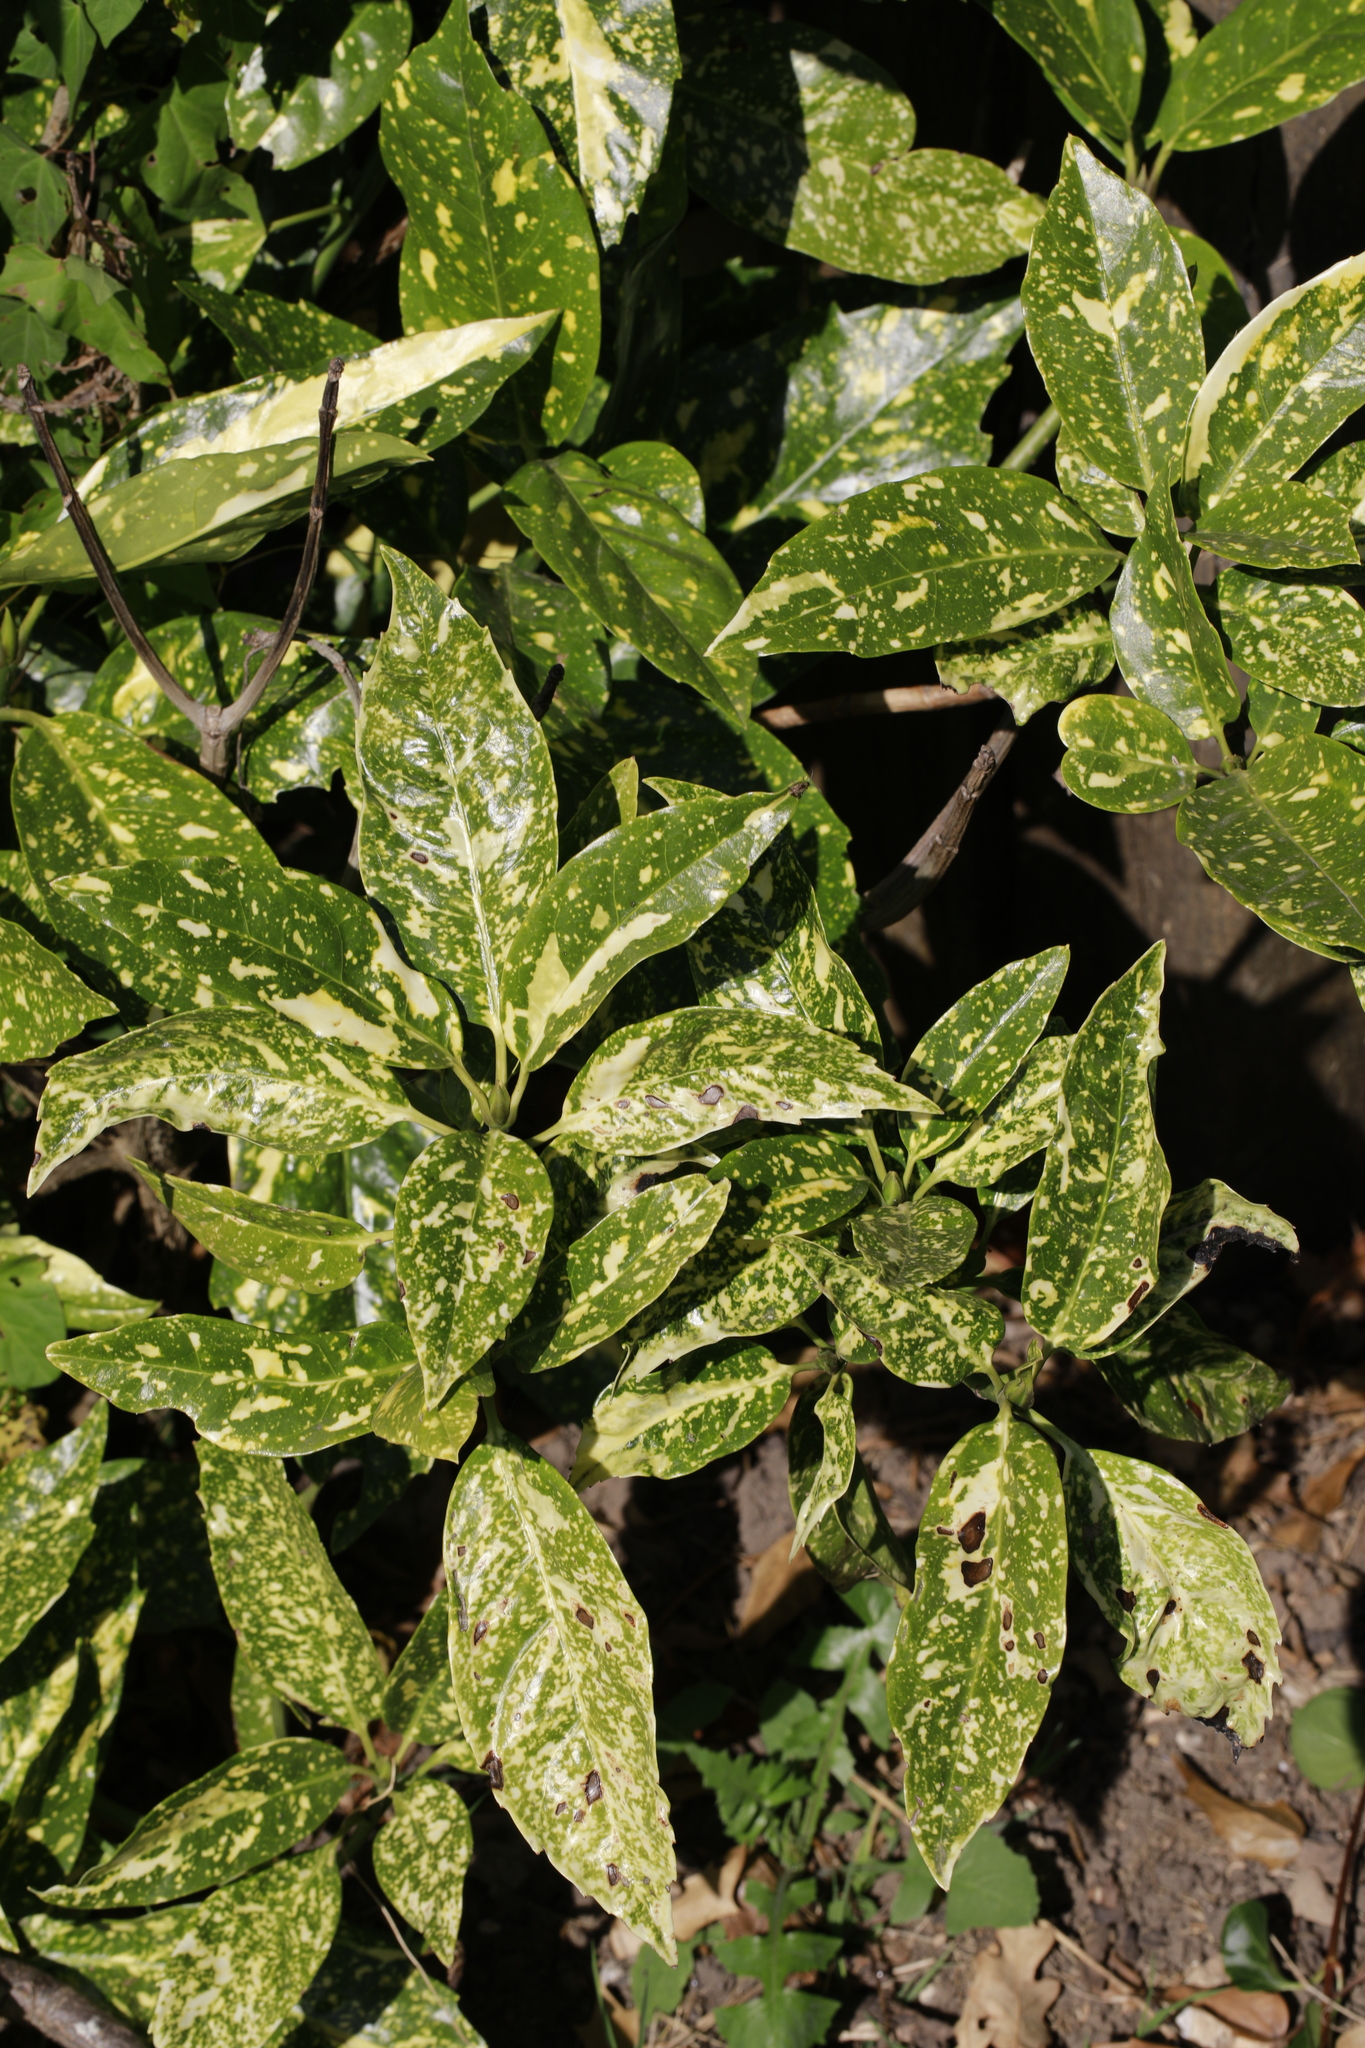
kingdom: Plantae
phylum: Tracheophyta
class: Magnoliopsida
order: Garryales
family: Garryaceae
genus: Aucuba
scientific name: Aucuba japonica
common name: Spotted-laurel
